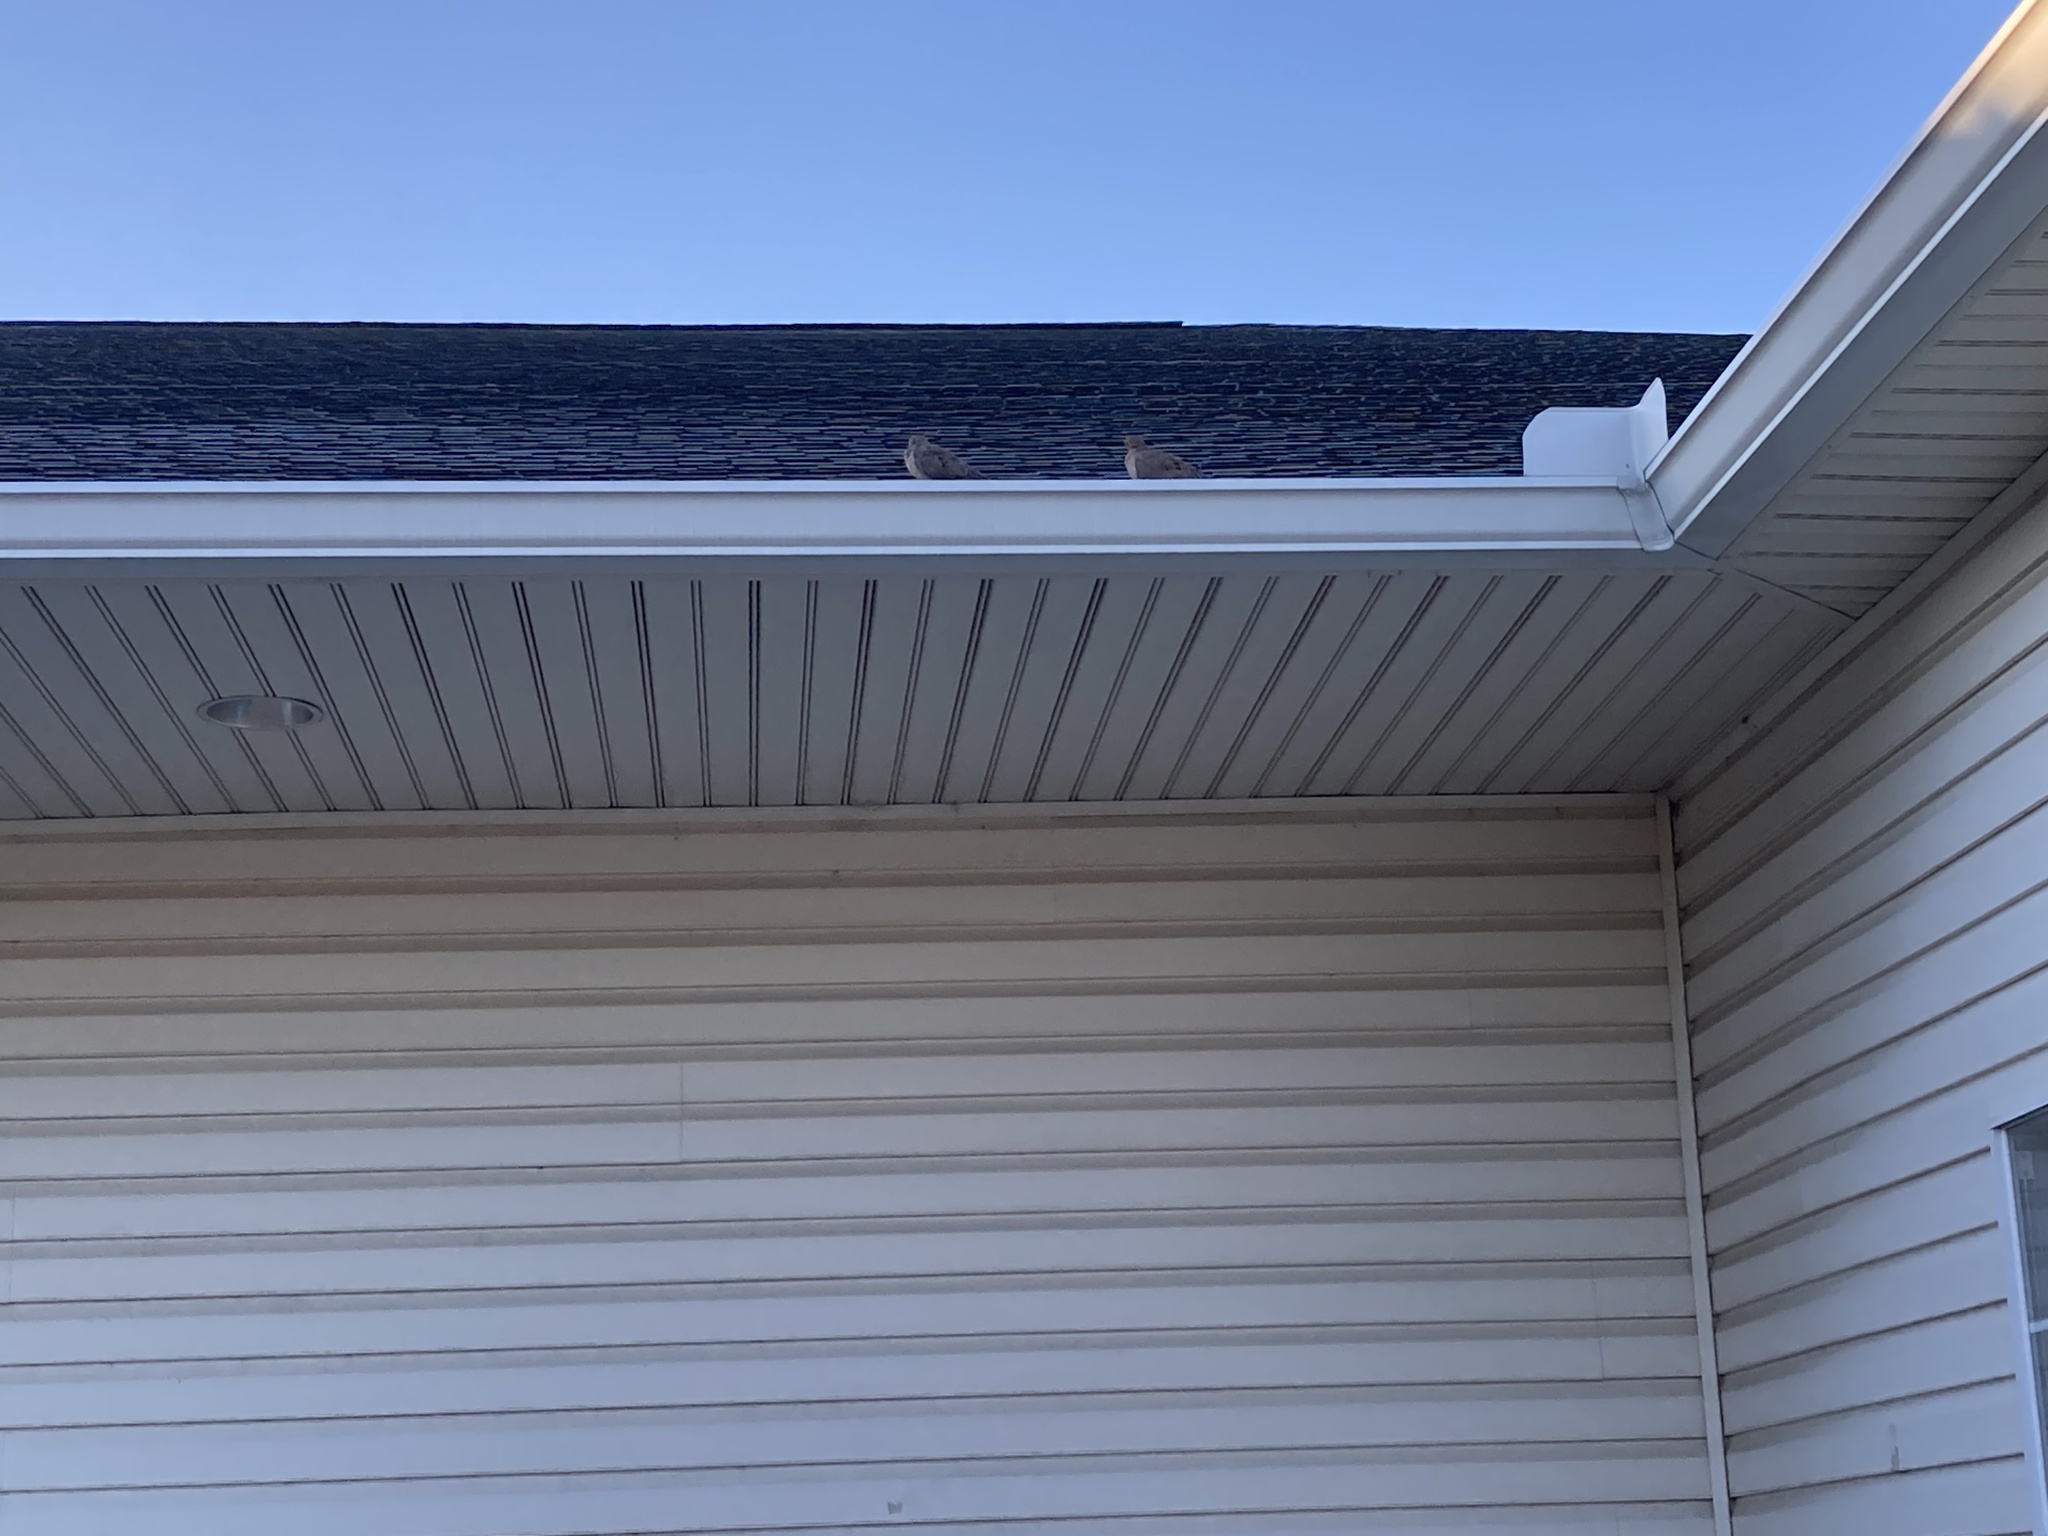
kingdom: Animalia
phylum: Chordata
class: Aves
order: Columbiformes
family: Columbidae
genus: Zenaida
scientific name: Zenaida macroura
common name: Mourning dove
